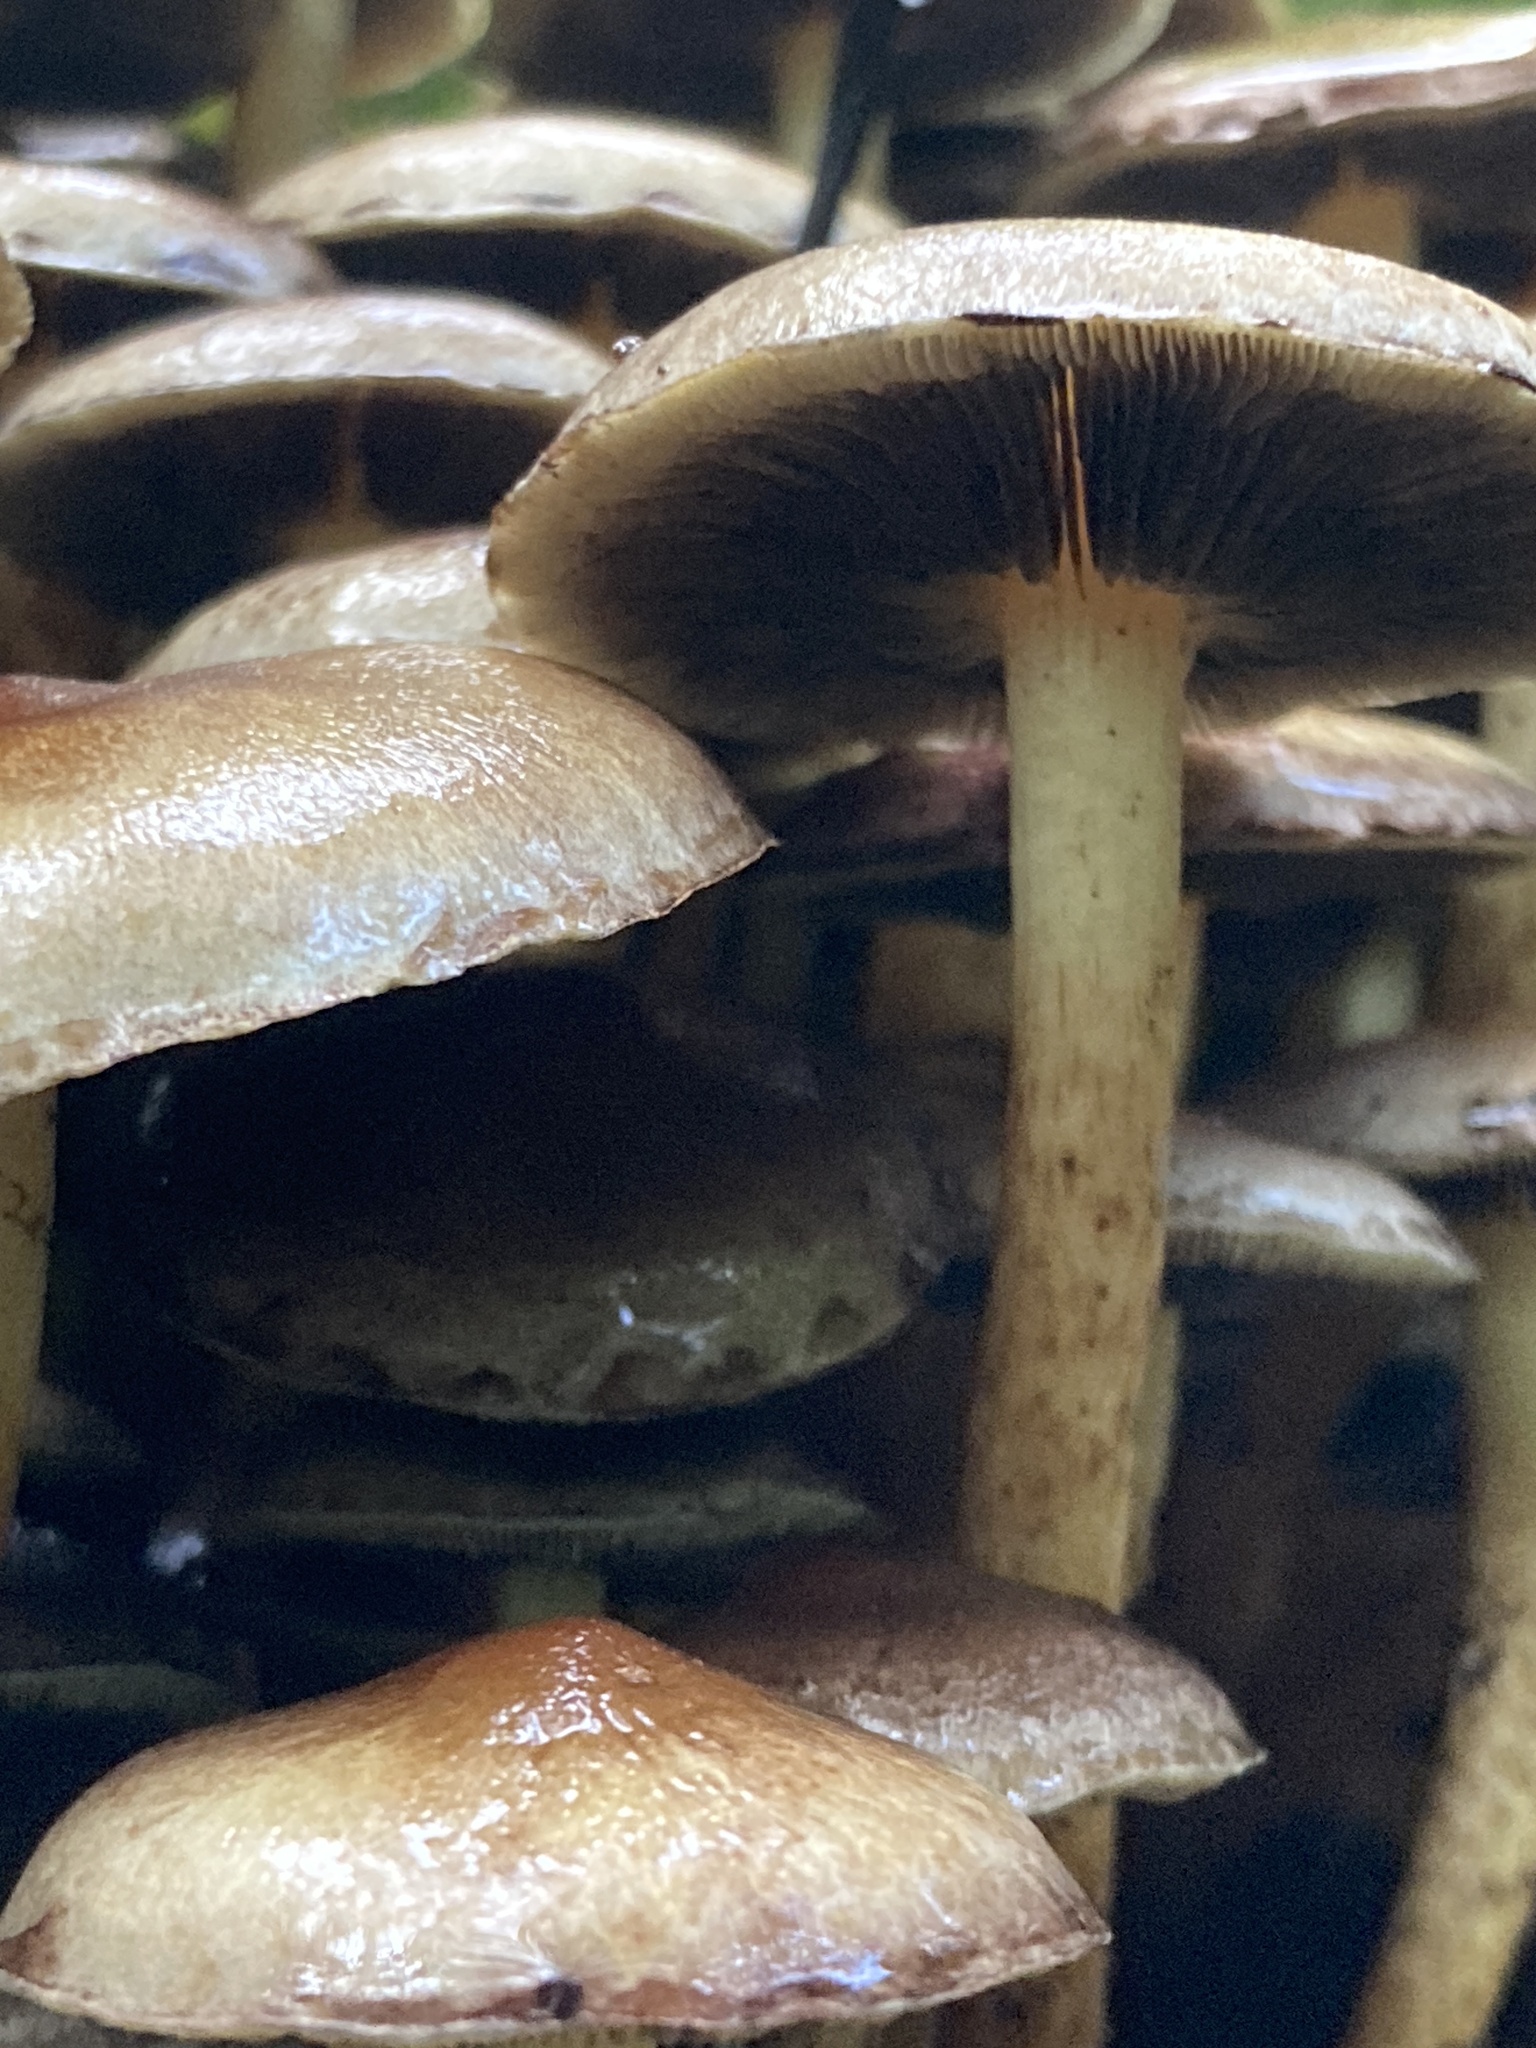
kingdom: Fungi
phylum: Basidiomycota
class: Agaricomycetes
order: Agaricales
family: Strophariaceae
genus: Hypholoma
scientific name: Hypholoma fasciculare
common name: Sulphur tuft
